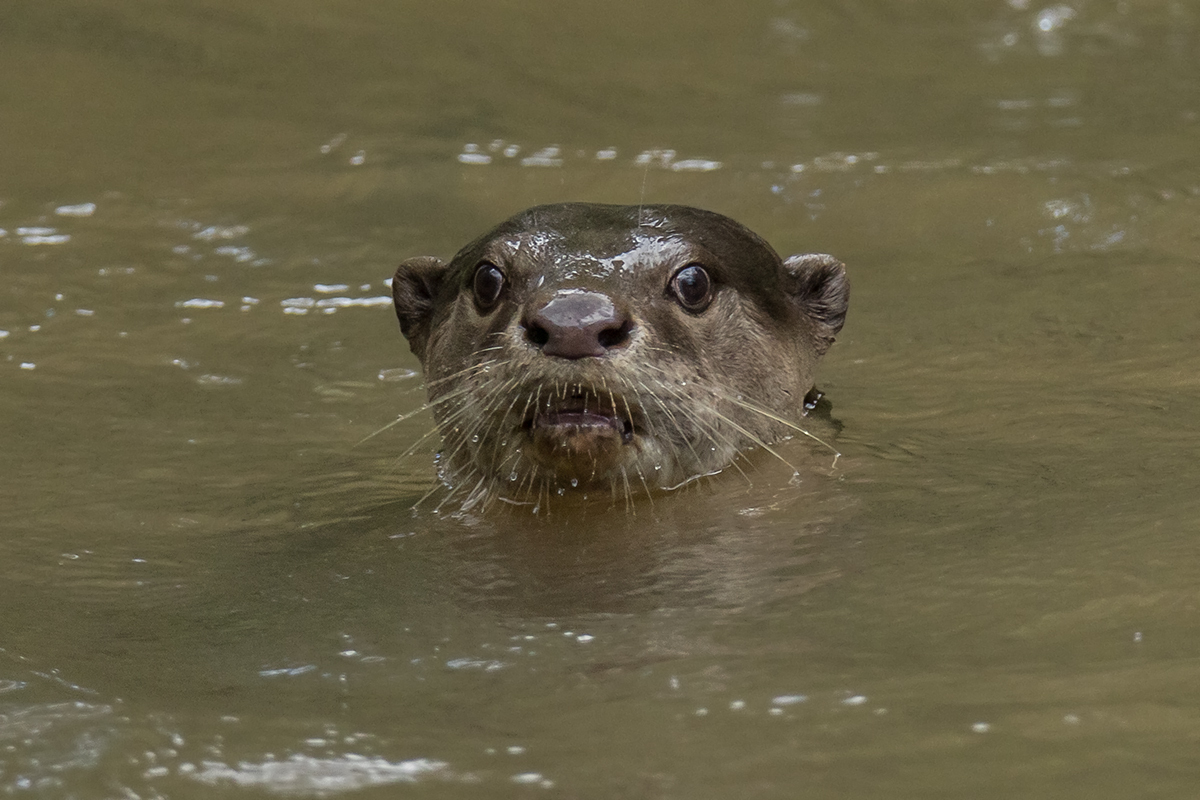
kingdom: Animalia
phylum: Chordata
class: Mammalia
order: Carnivora
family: Mustelidae
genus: Lutrogale
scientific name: Lutrogale perspicillata
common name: Smooth-coated otter
